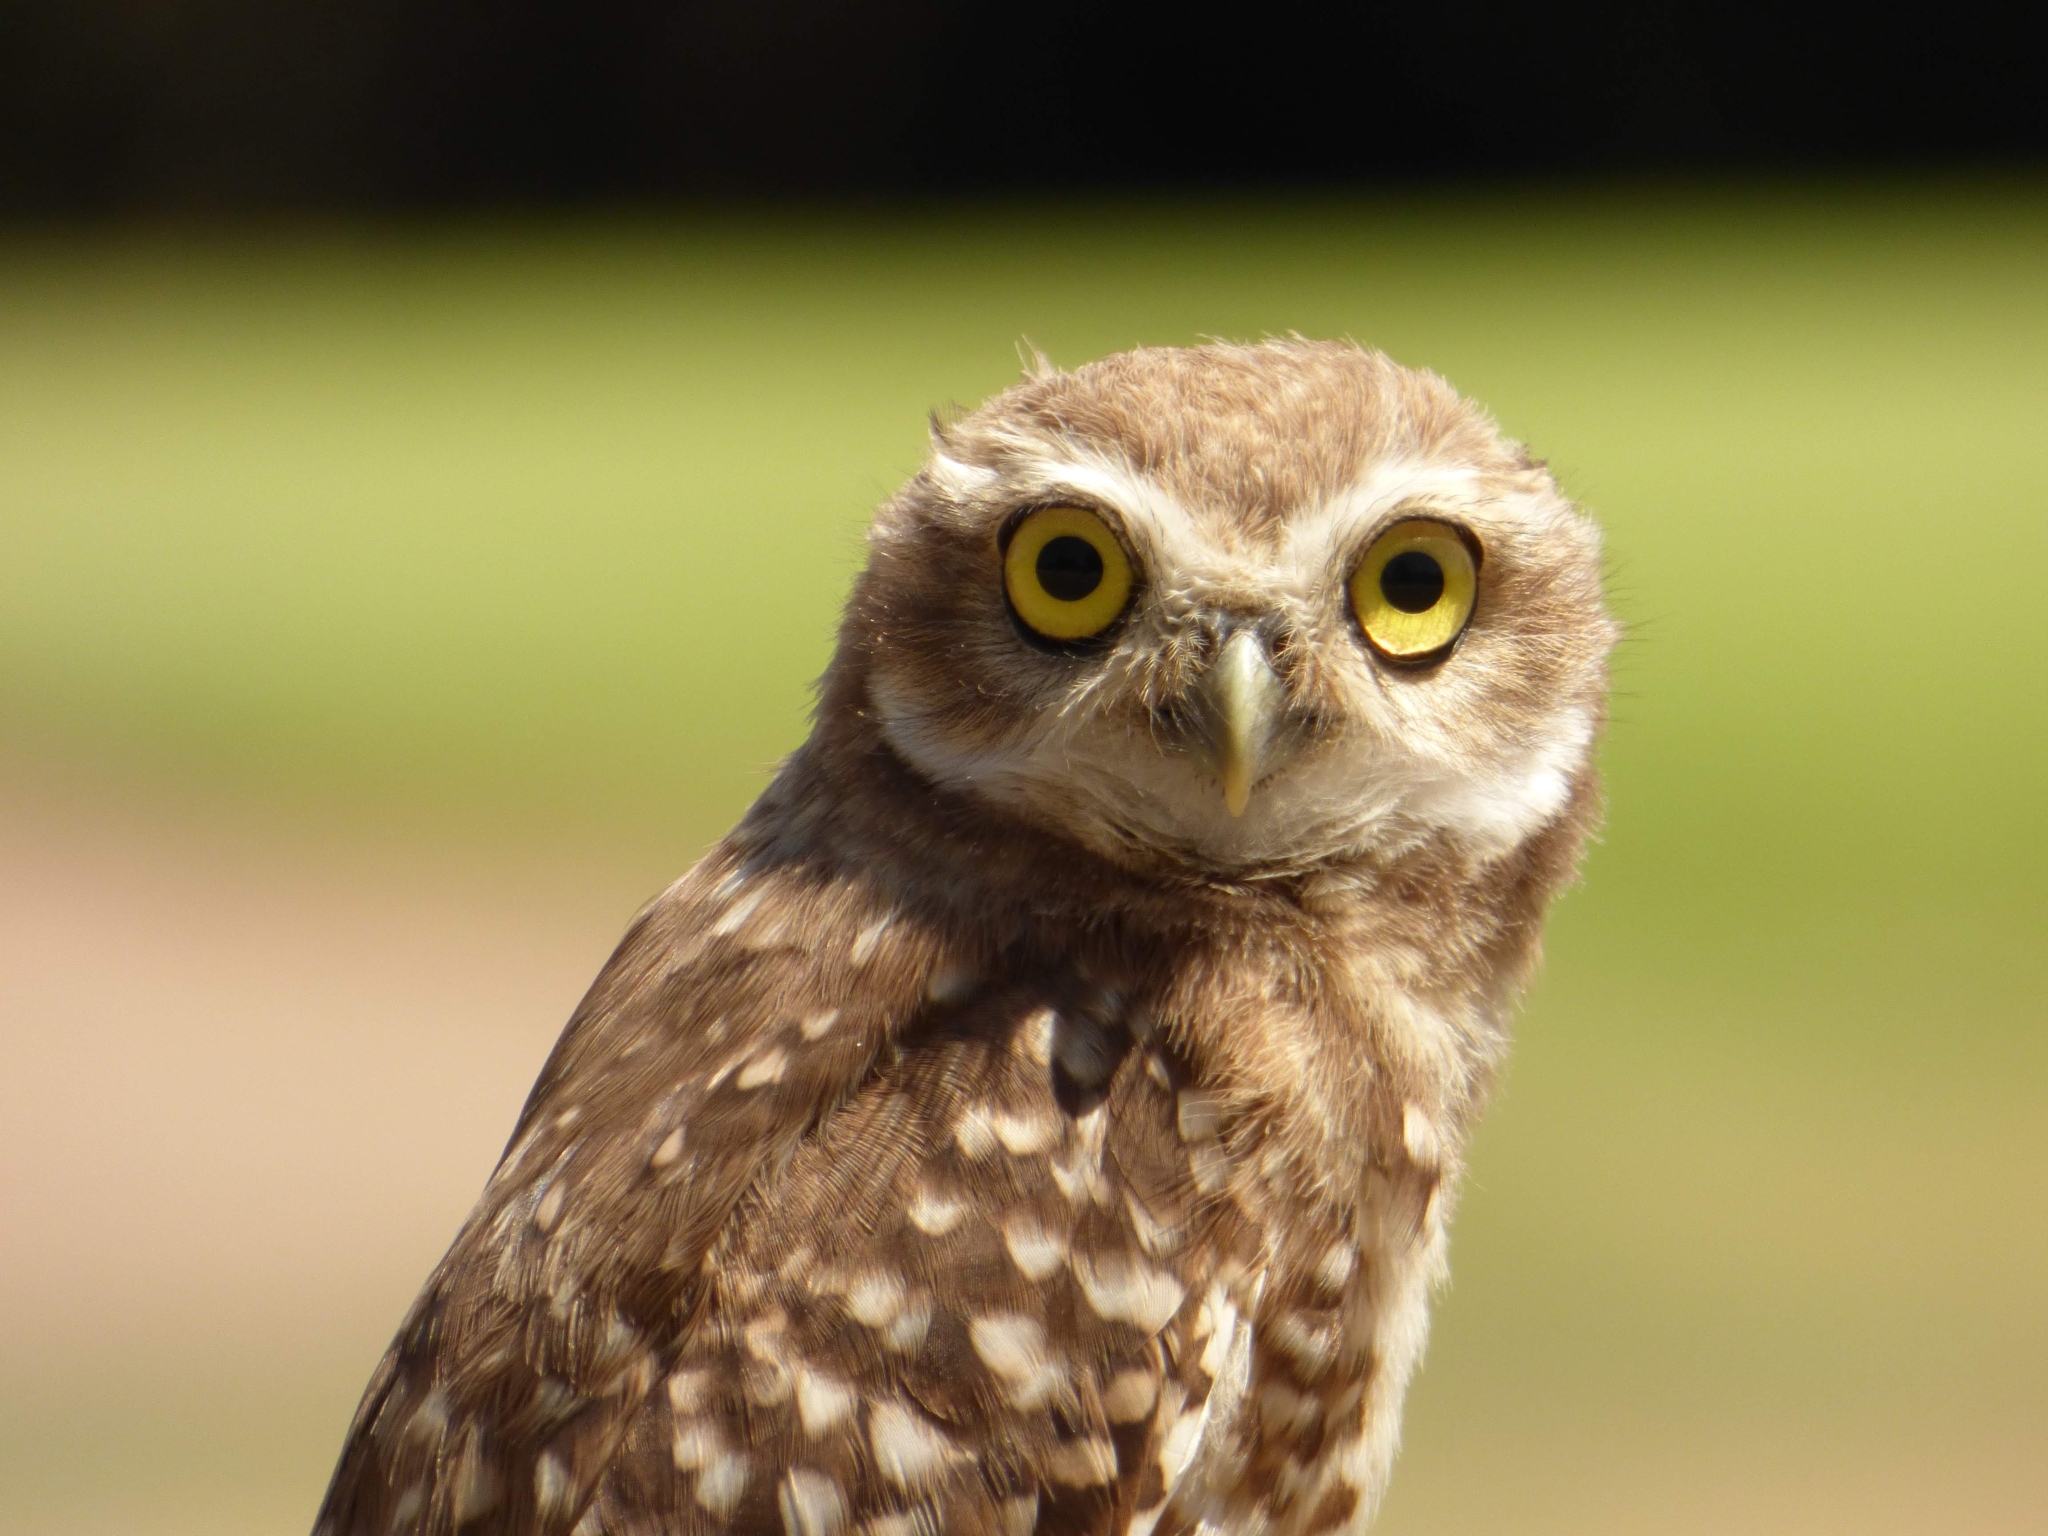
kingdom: Animalia
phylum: Chordata
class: Aves
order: Strigiformes
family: Strigidae
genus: Athene
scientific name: Athene cunicularia
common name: Burrowing owl
